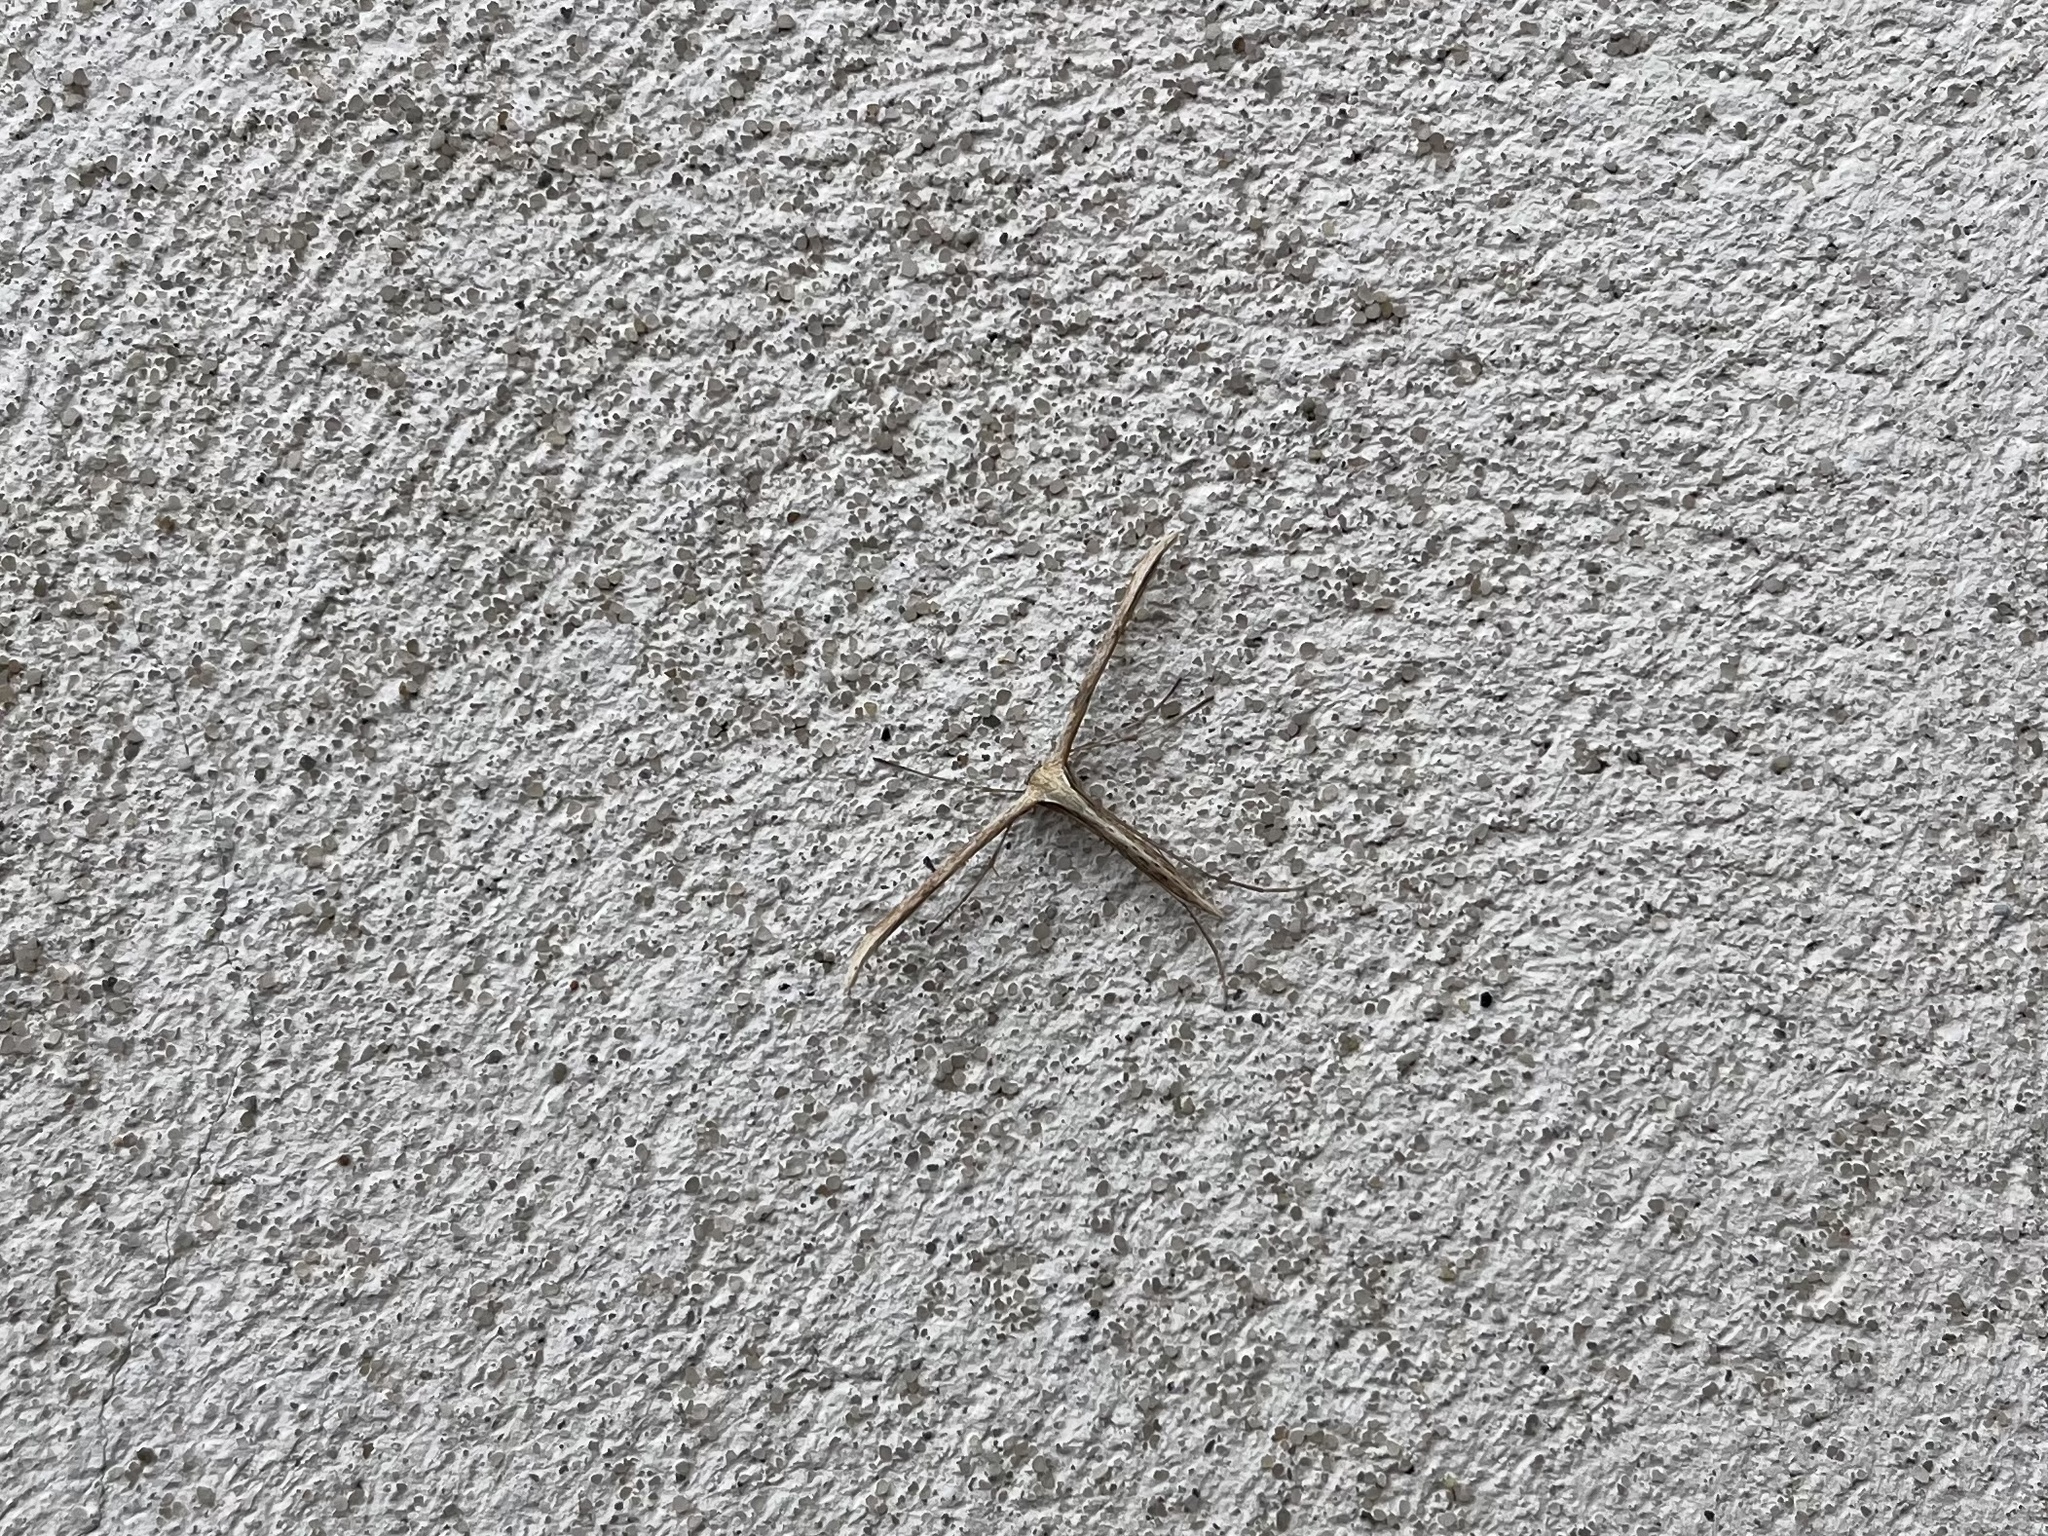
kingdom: Animalia
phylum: Arthropoda
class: Insecta
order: Lepidoptera
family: Pterophoridae
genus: Emmelina
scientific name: Emmelina monodactyla
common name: Common plume
